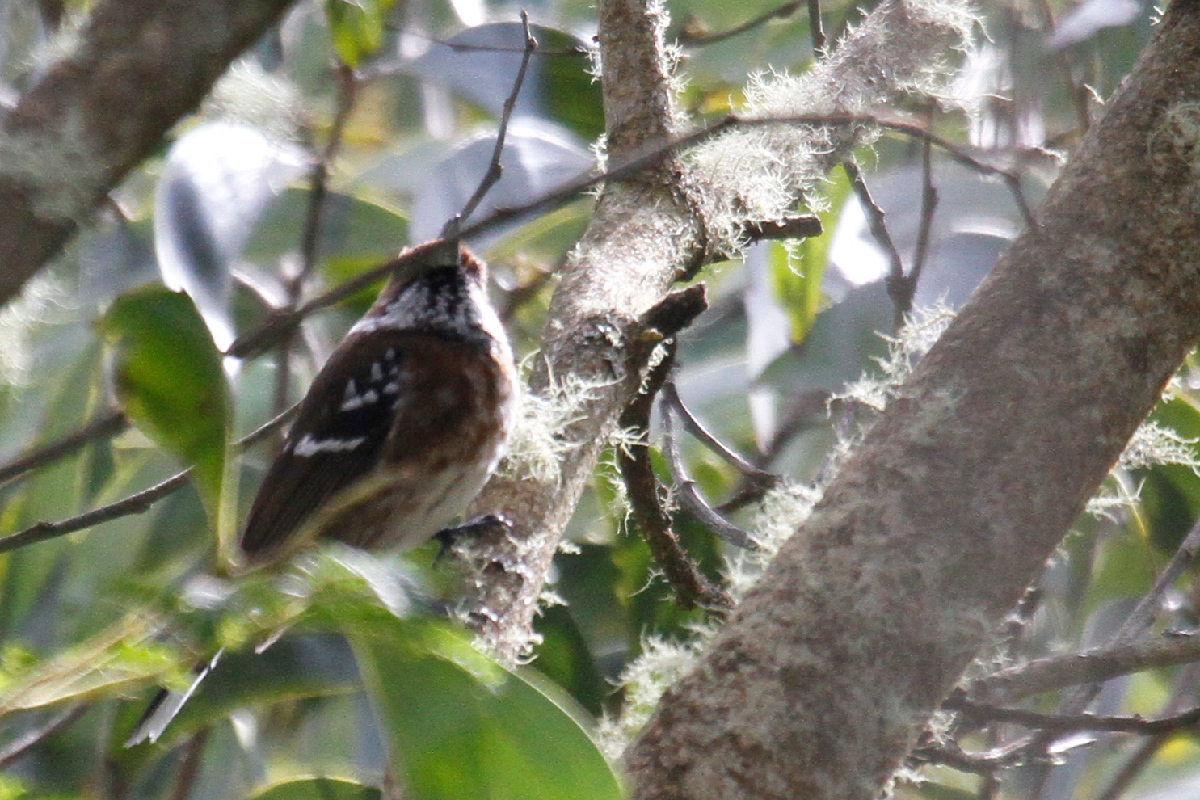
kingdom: Animalia
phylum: Chordata
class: Aves
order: Passeriformes
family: Monarchidae
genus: Chasiempis
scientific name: Chasiempis sandwichensis
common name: Hawaii elepaio
